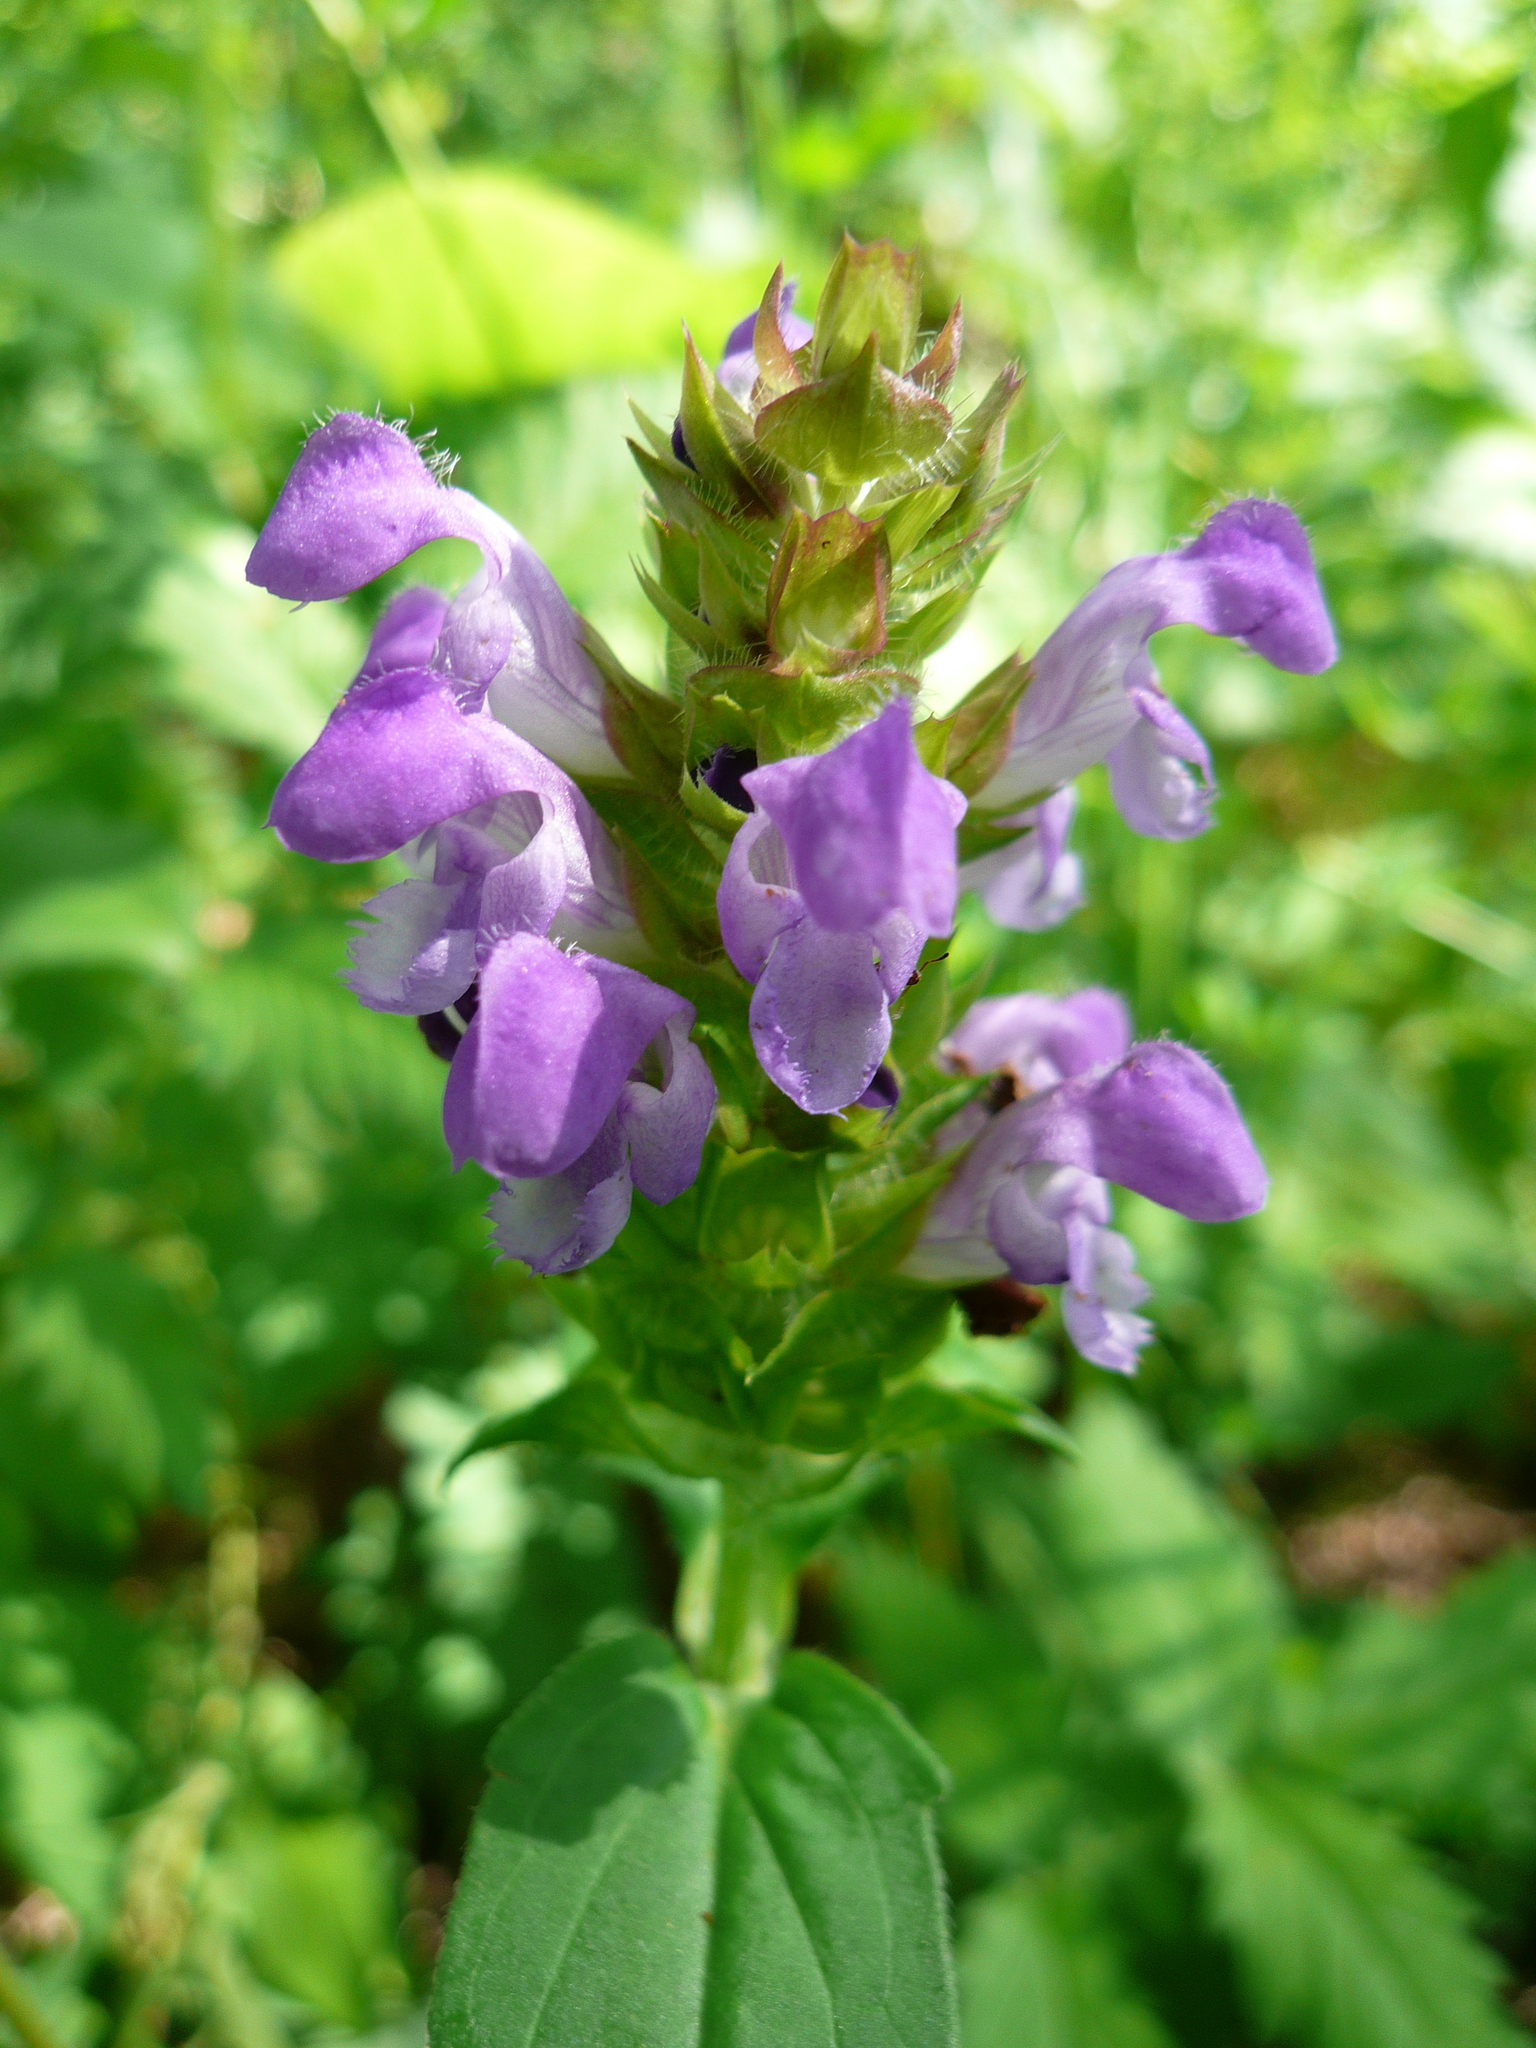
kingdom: Plantae
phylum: Tracheophyta
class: Magnoliopsida
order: Lamiales
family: Lamiaceae
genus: Prunella
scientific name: Prunella grandiflora
